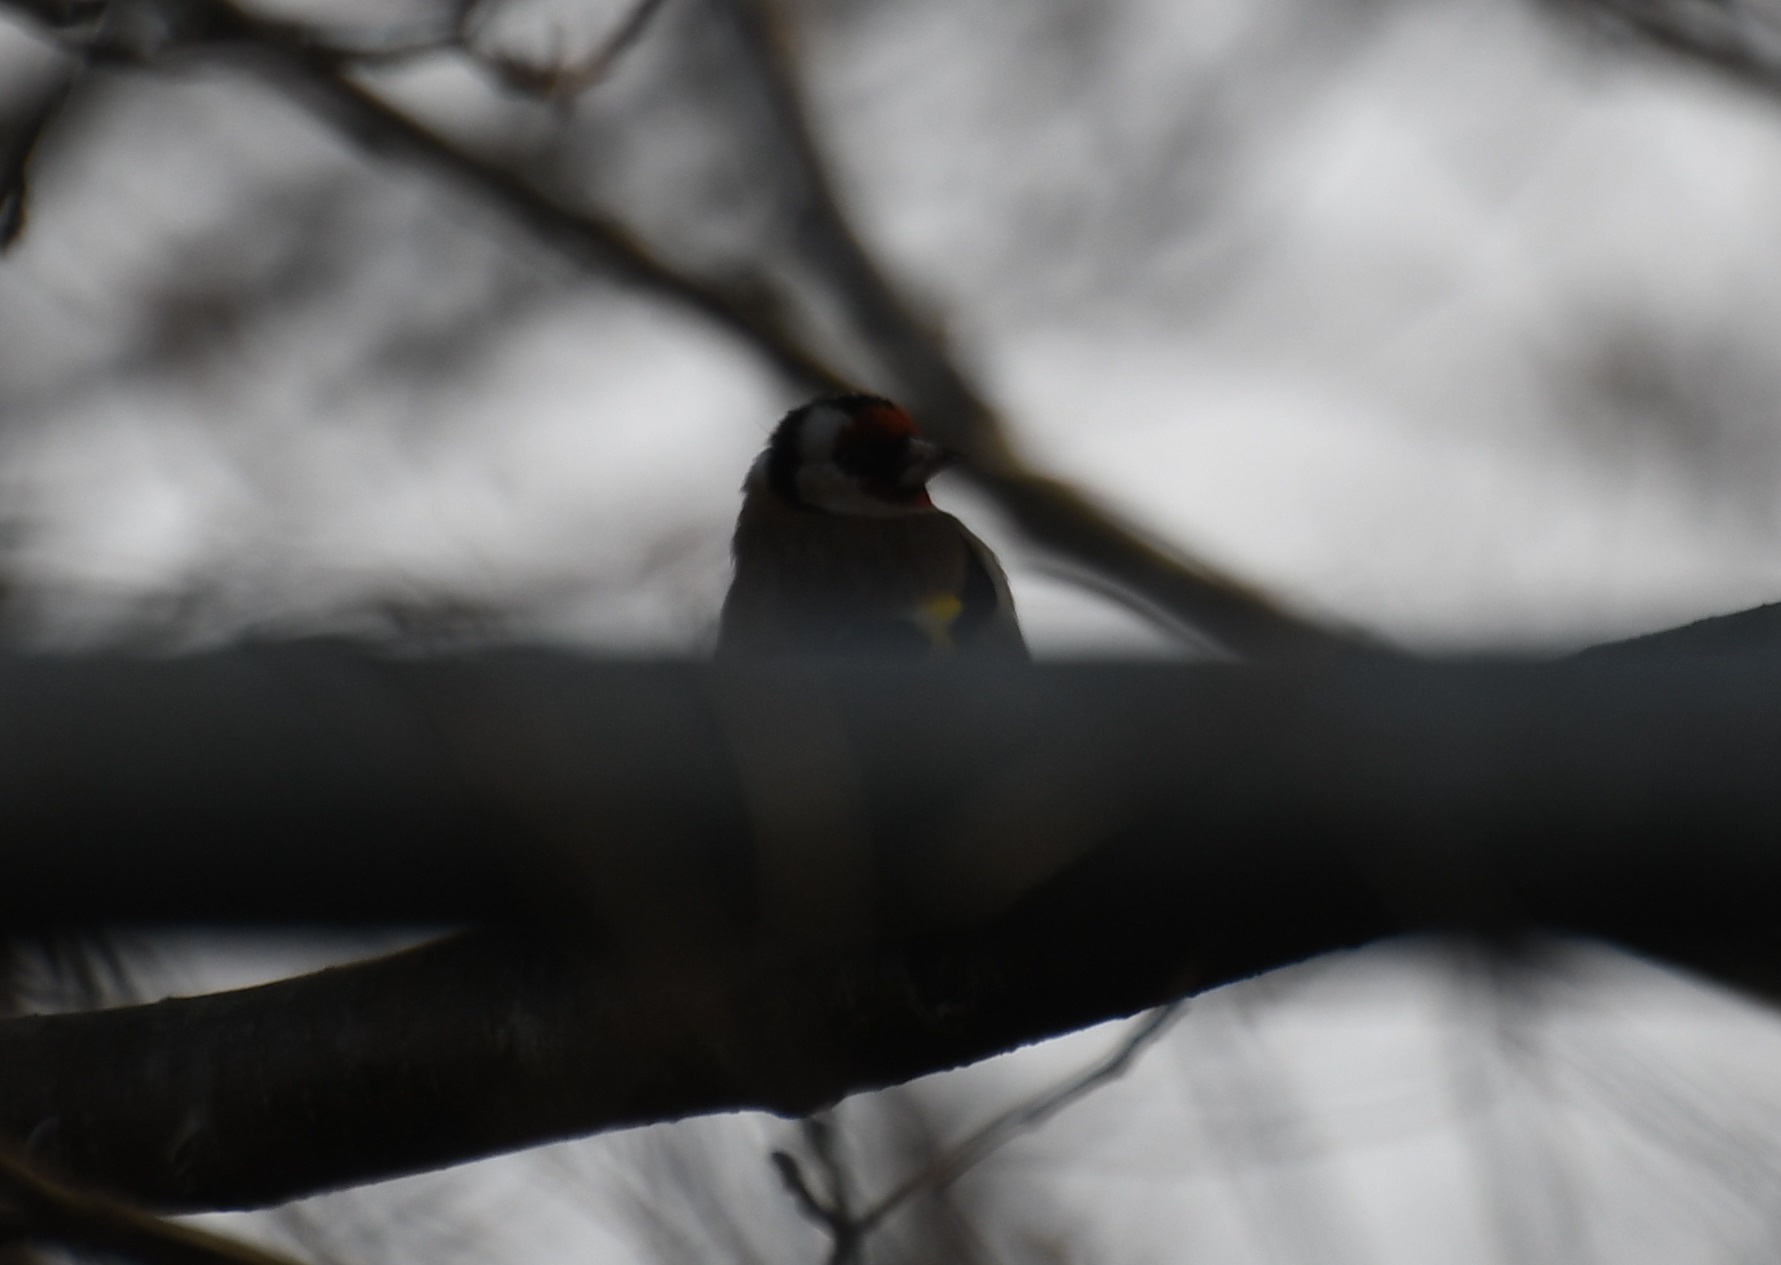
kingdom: Animalia
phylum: Chordata
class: Aves
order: Passeriformes
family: Fringillidae
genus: Carduelis
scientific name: Carduelis carduelis
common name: European goldfinch
